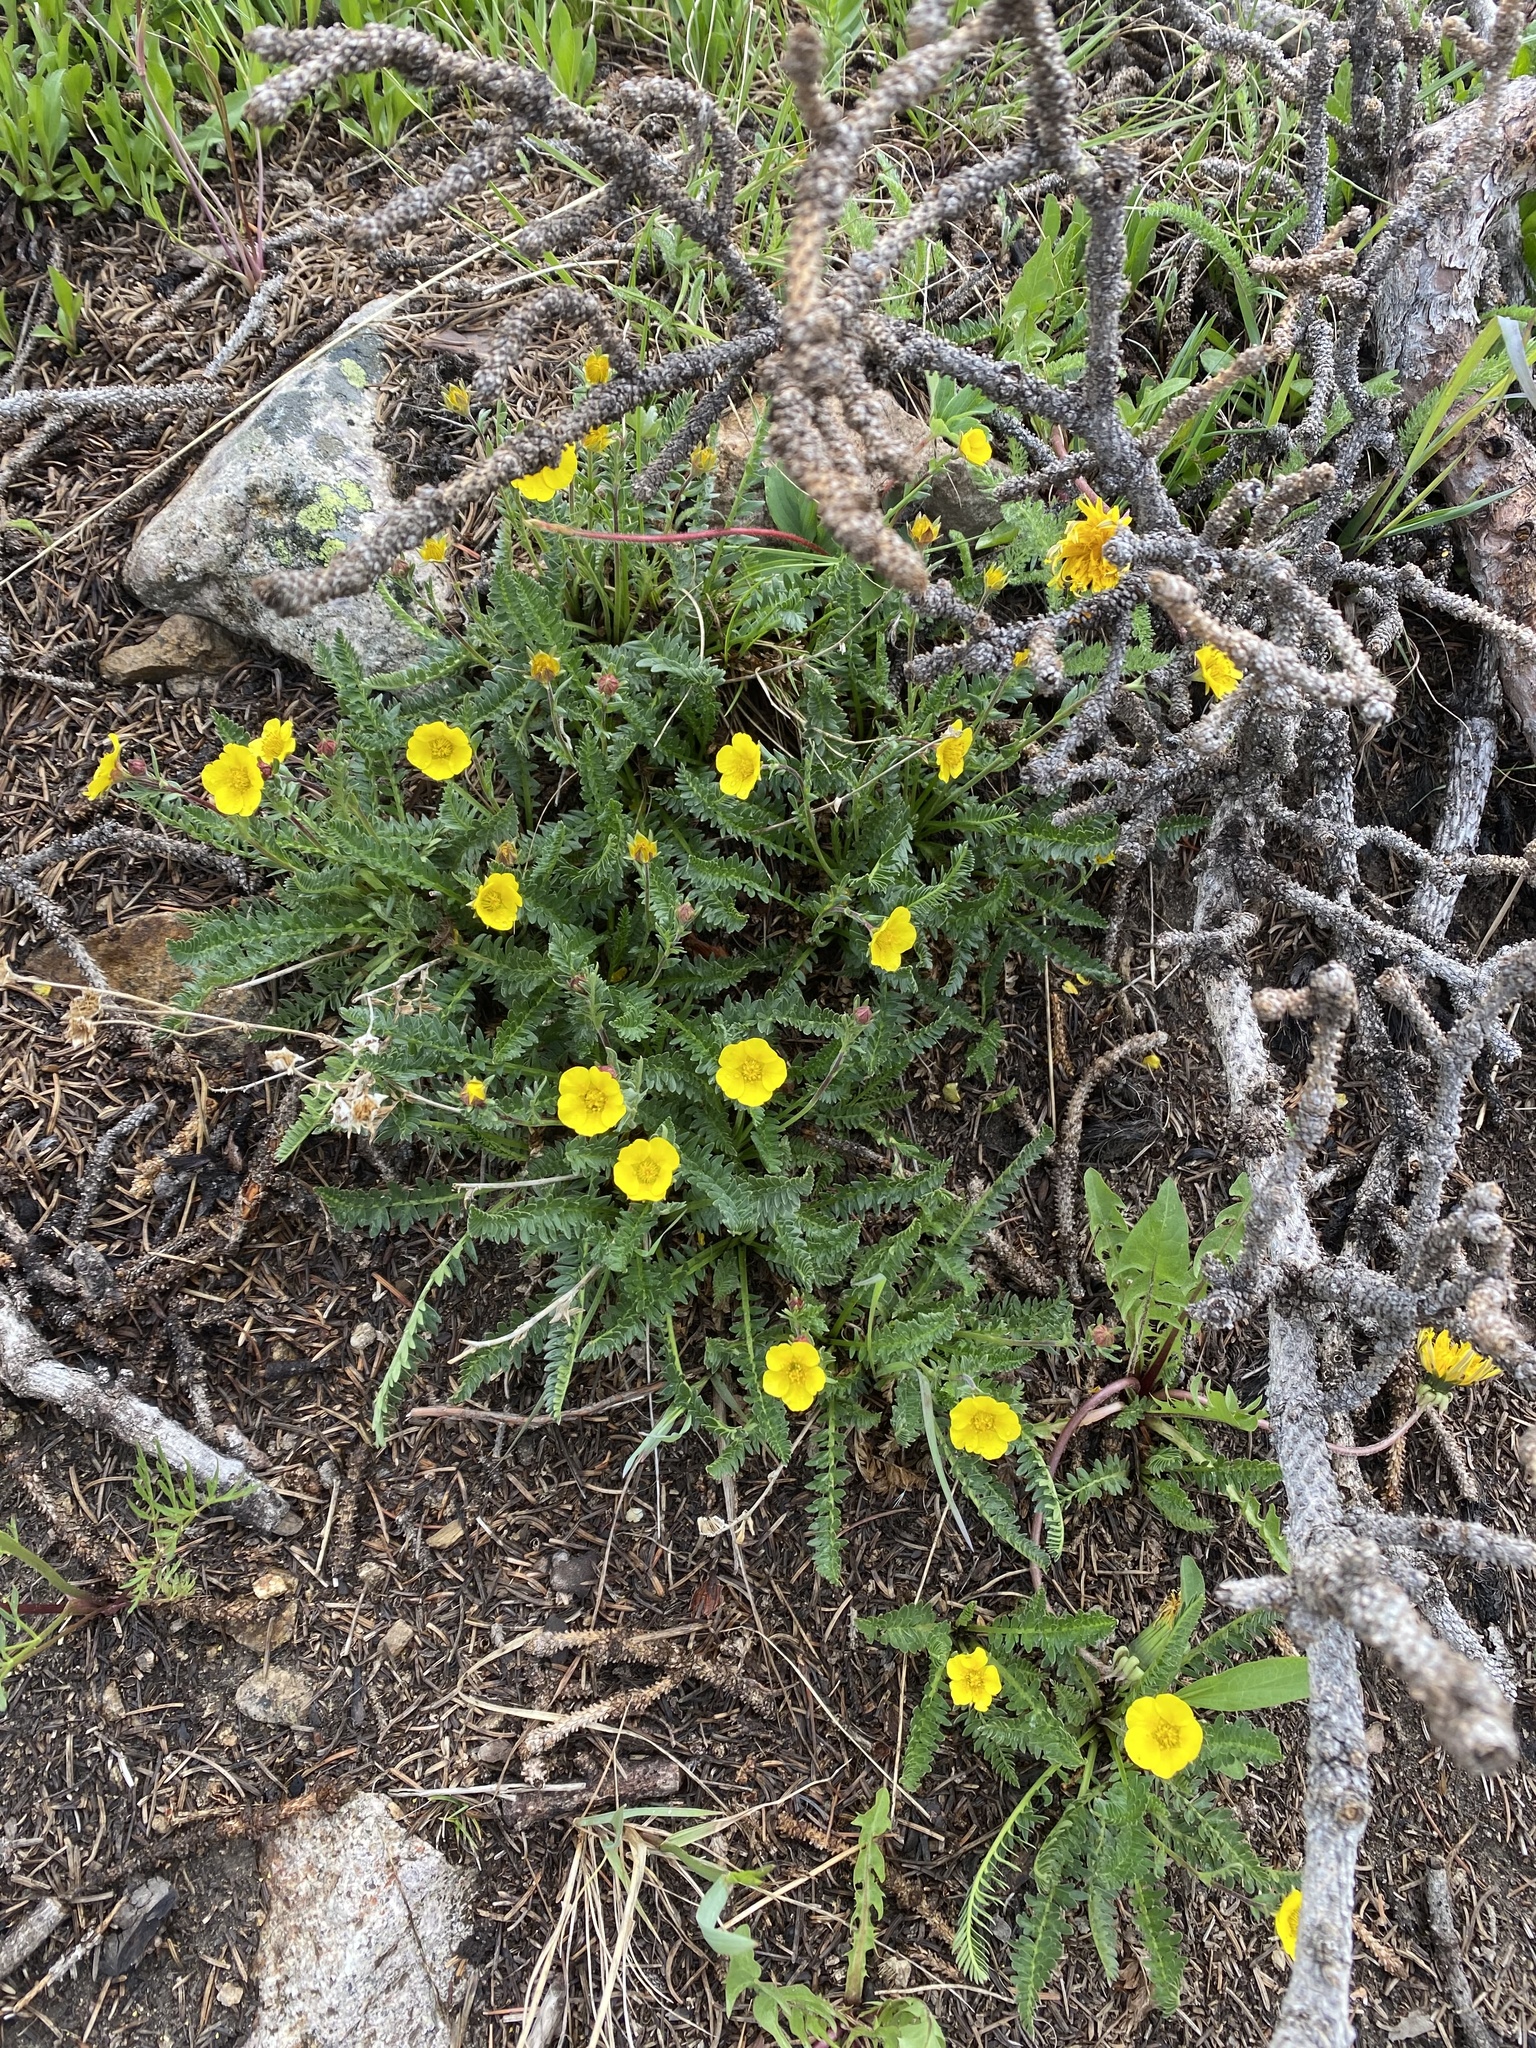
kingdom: Plantae
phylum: Tracheophyta
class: Magnoliopsida
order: Rosales
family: Rosaceae
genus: Geum
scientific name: Geum rossii
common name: Alpine avens
